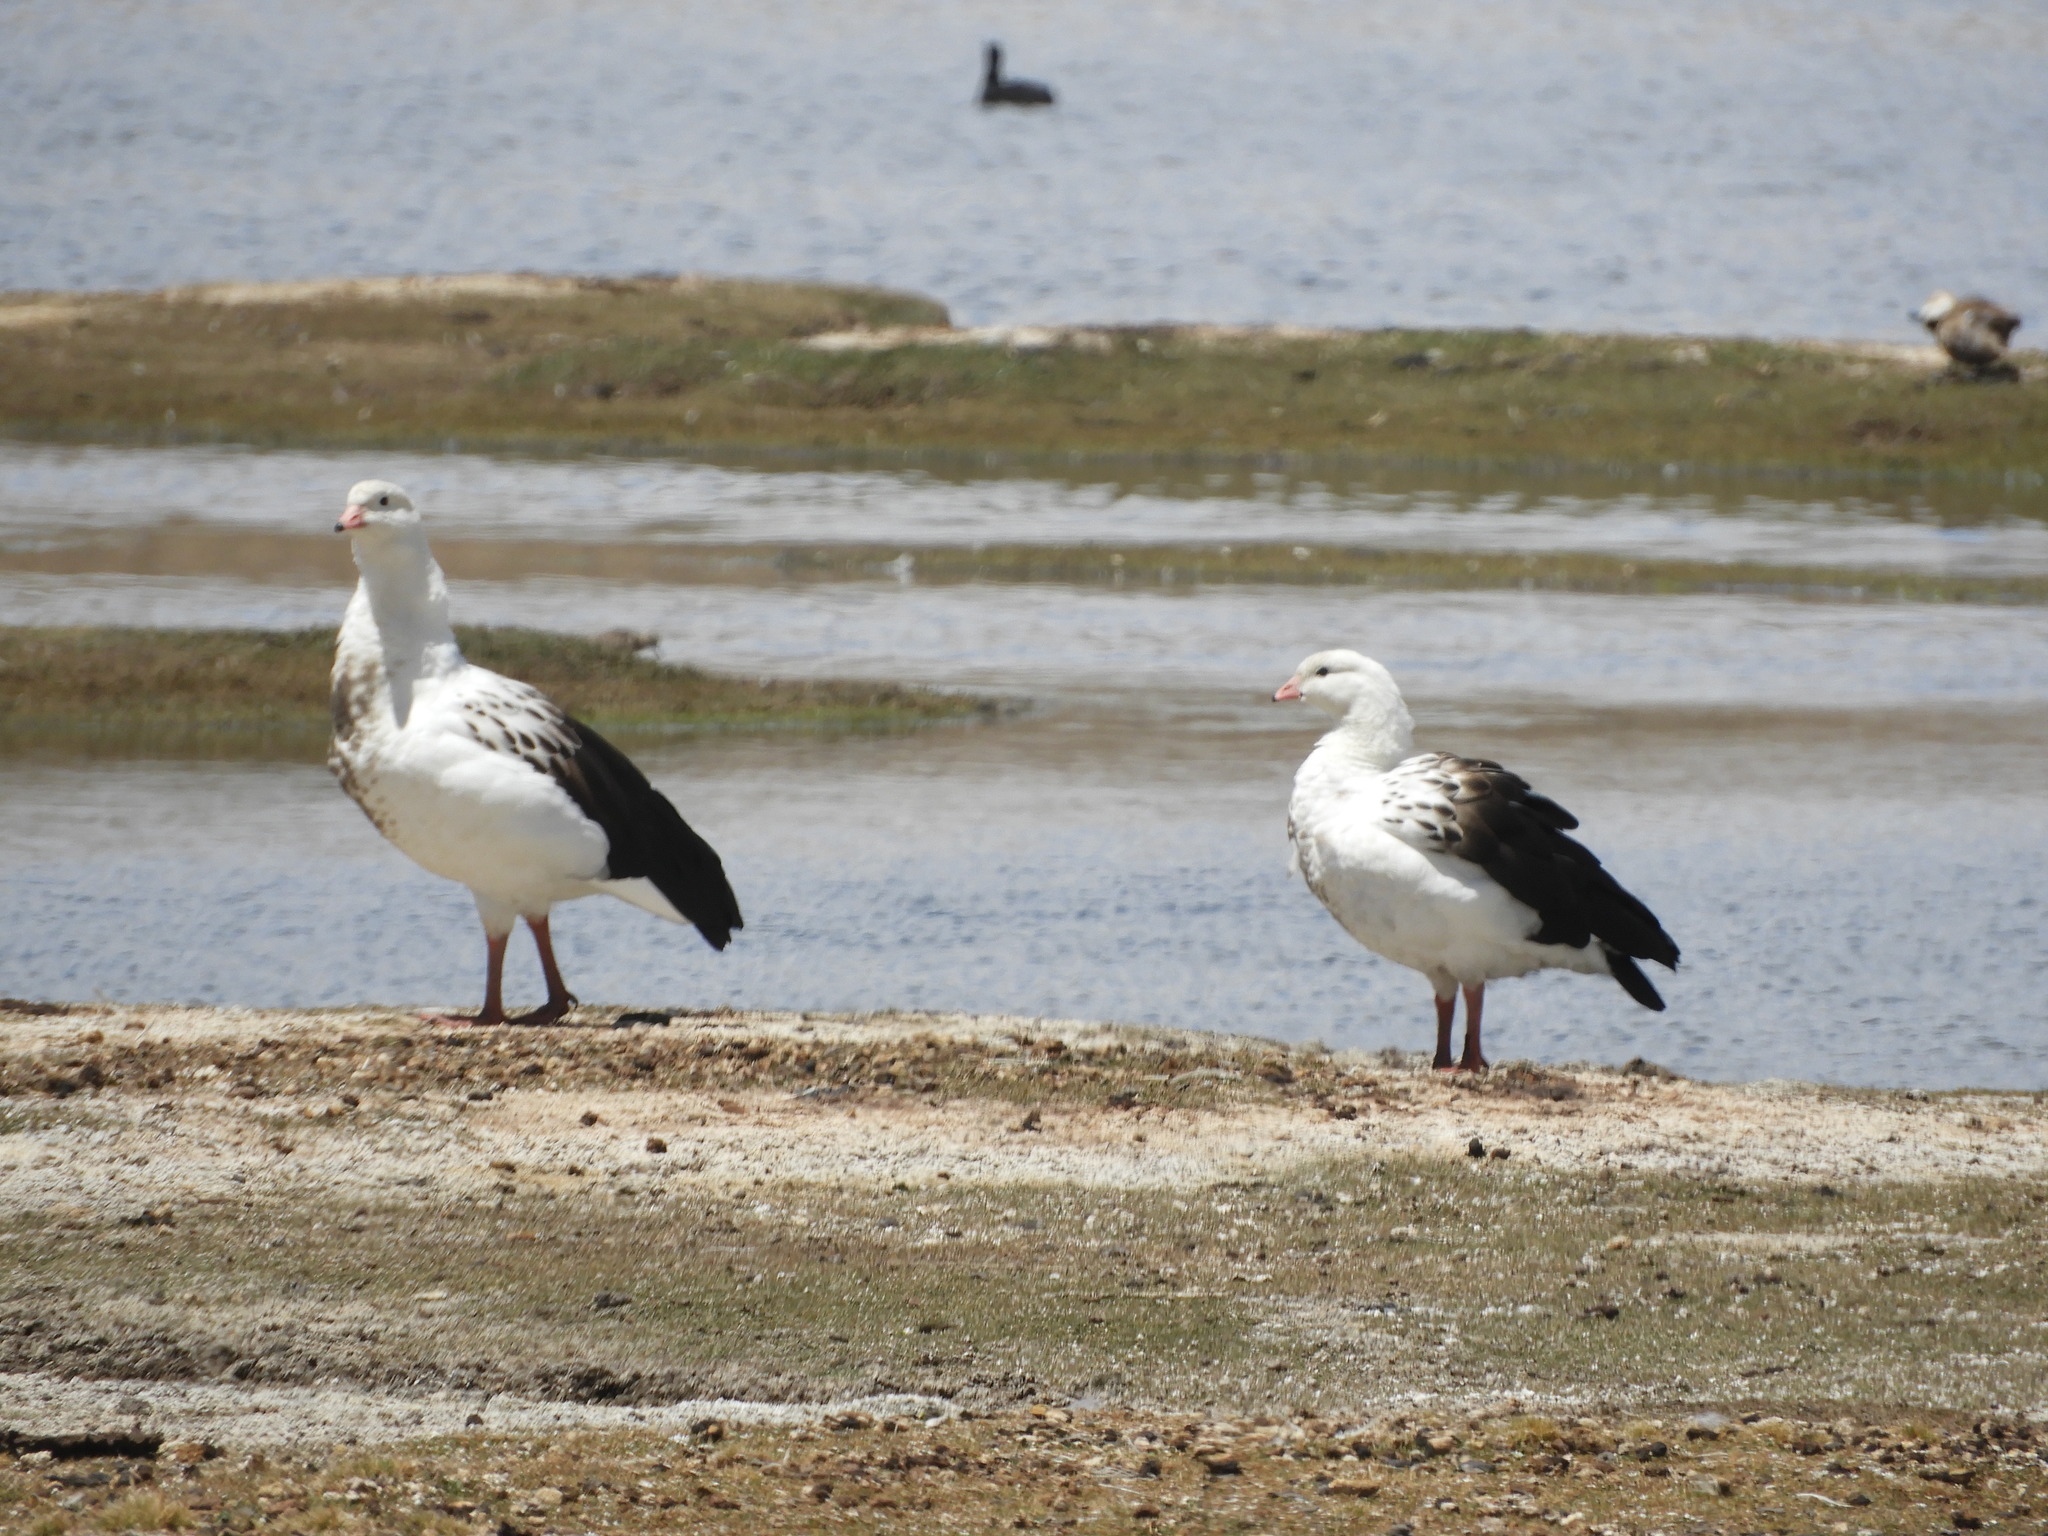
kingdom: Animalia
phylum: Chordata
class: Aves
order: Anseriformes
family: Anatidae
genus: Chloephaga
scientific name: Chloephaga melanoptera
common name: Andean goose
